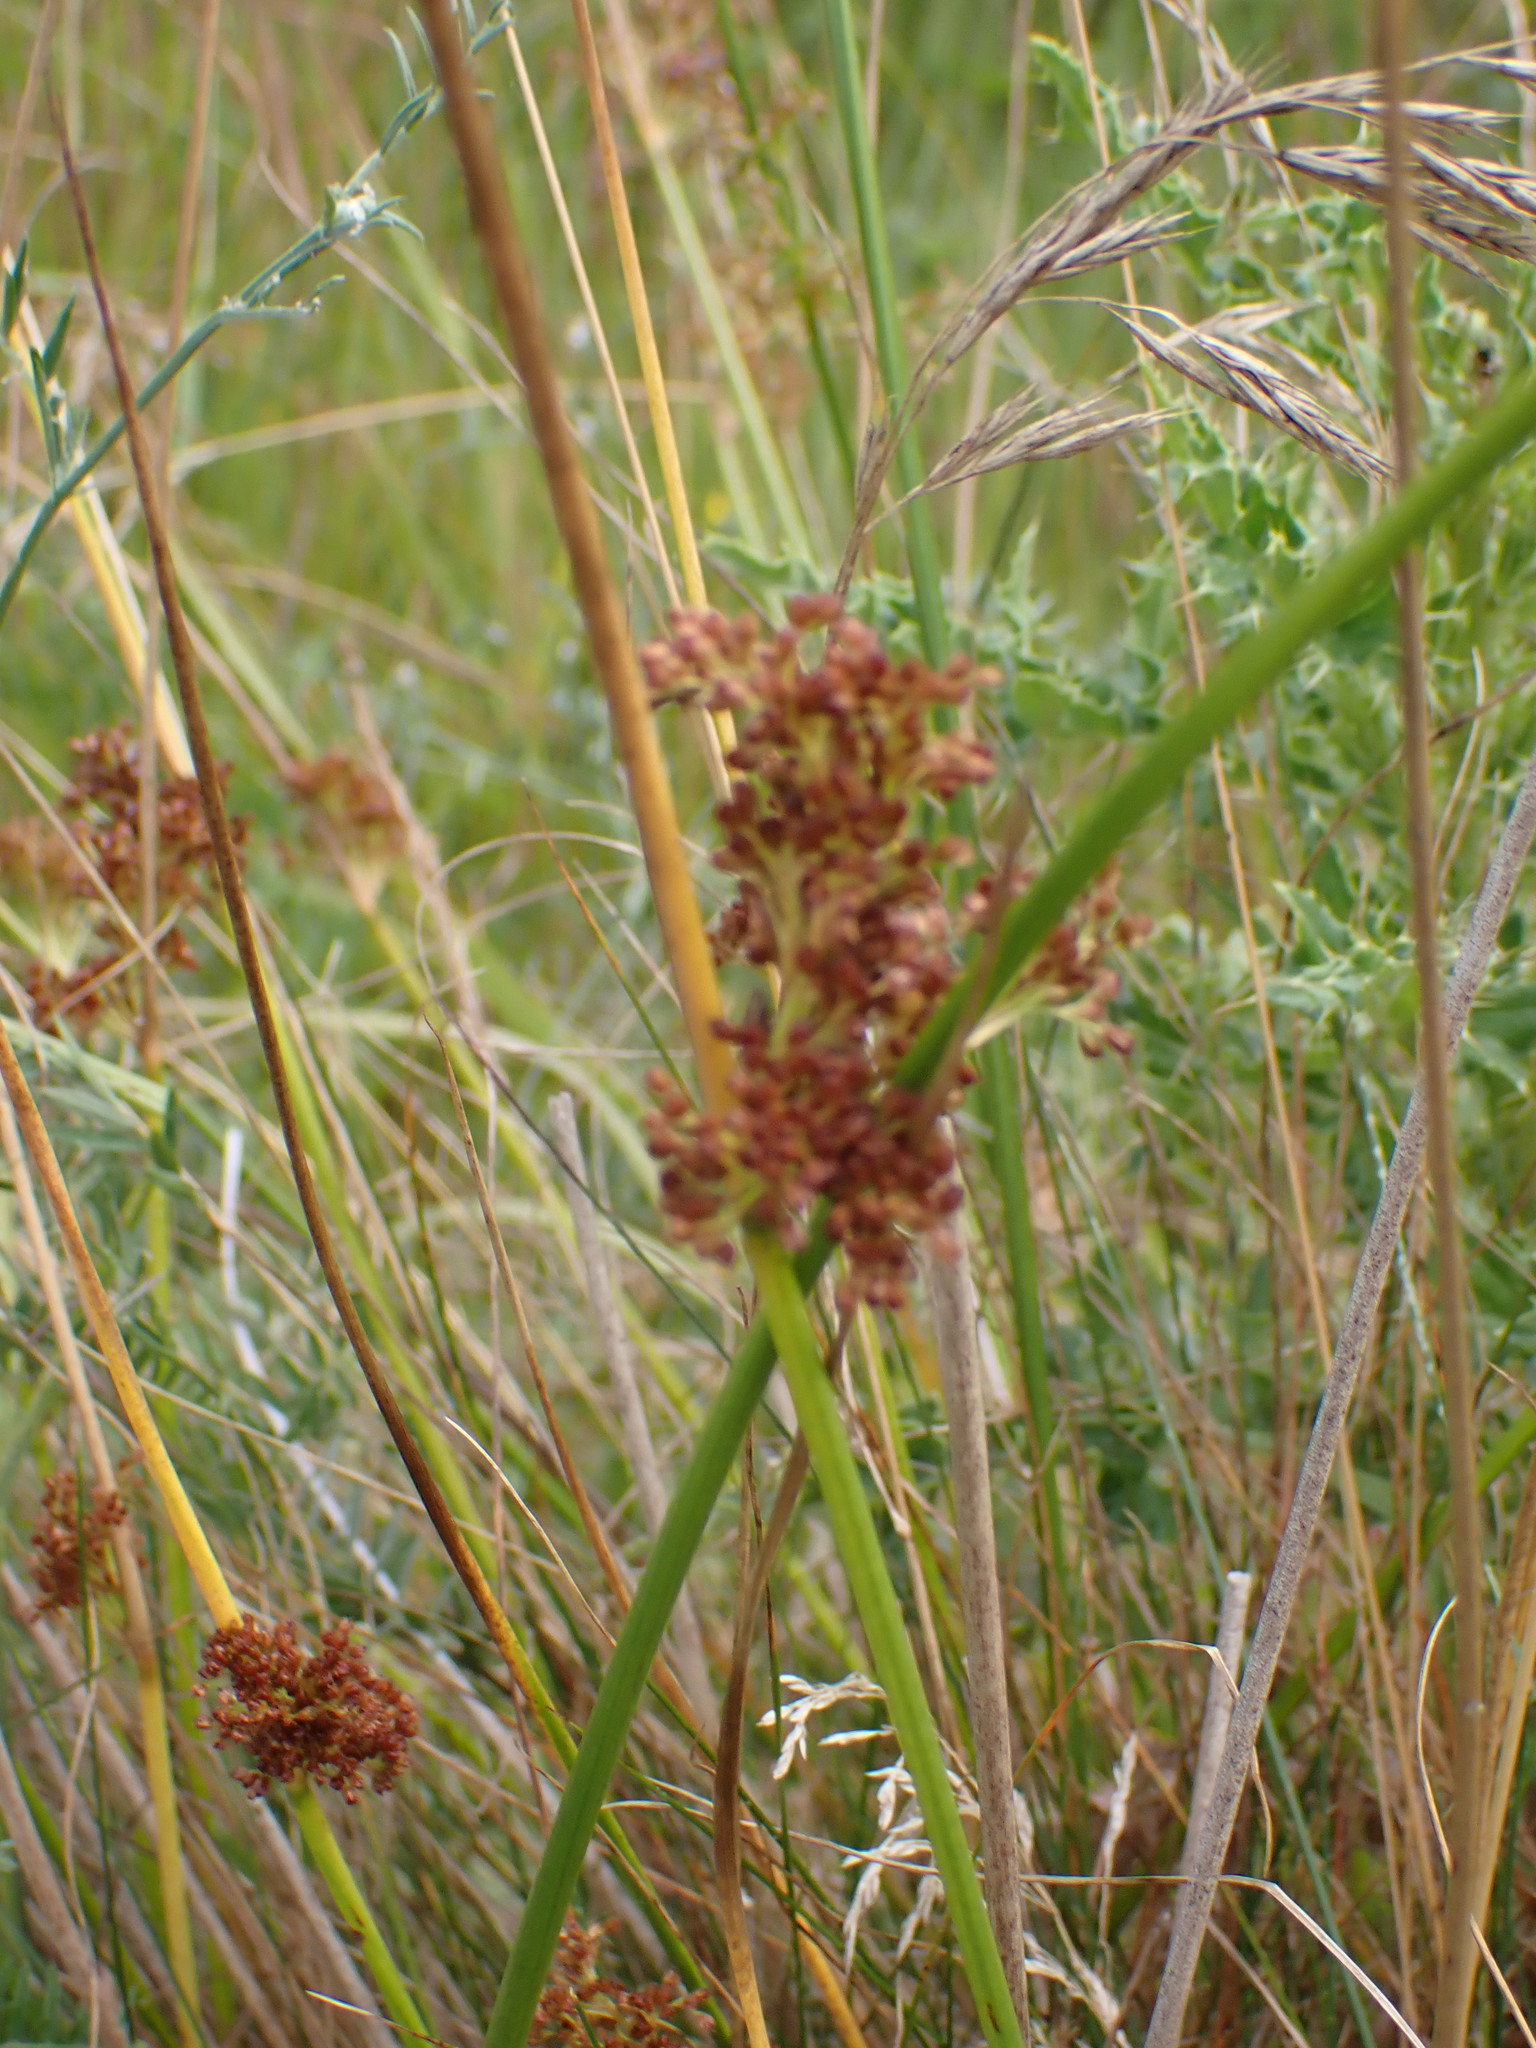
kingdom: Plantae
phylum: Tracheophyta
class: Liliopsida
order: Poales
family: Juncaceae
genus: Juncus
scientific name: Juncus effusus
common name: Soft rush
